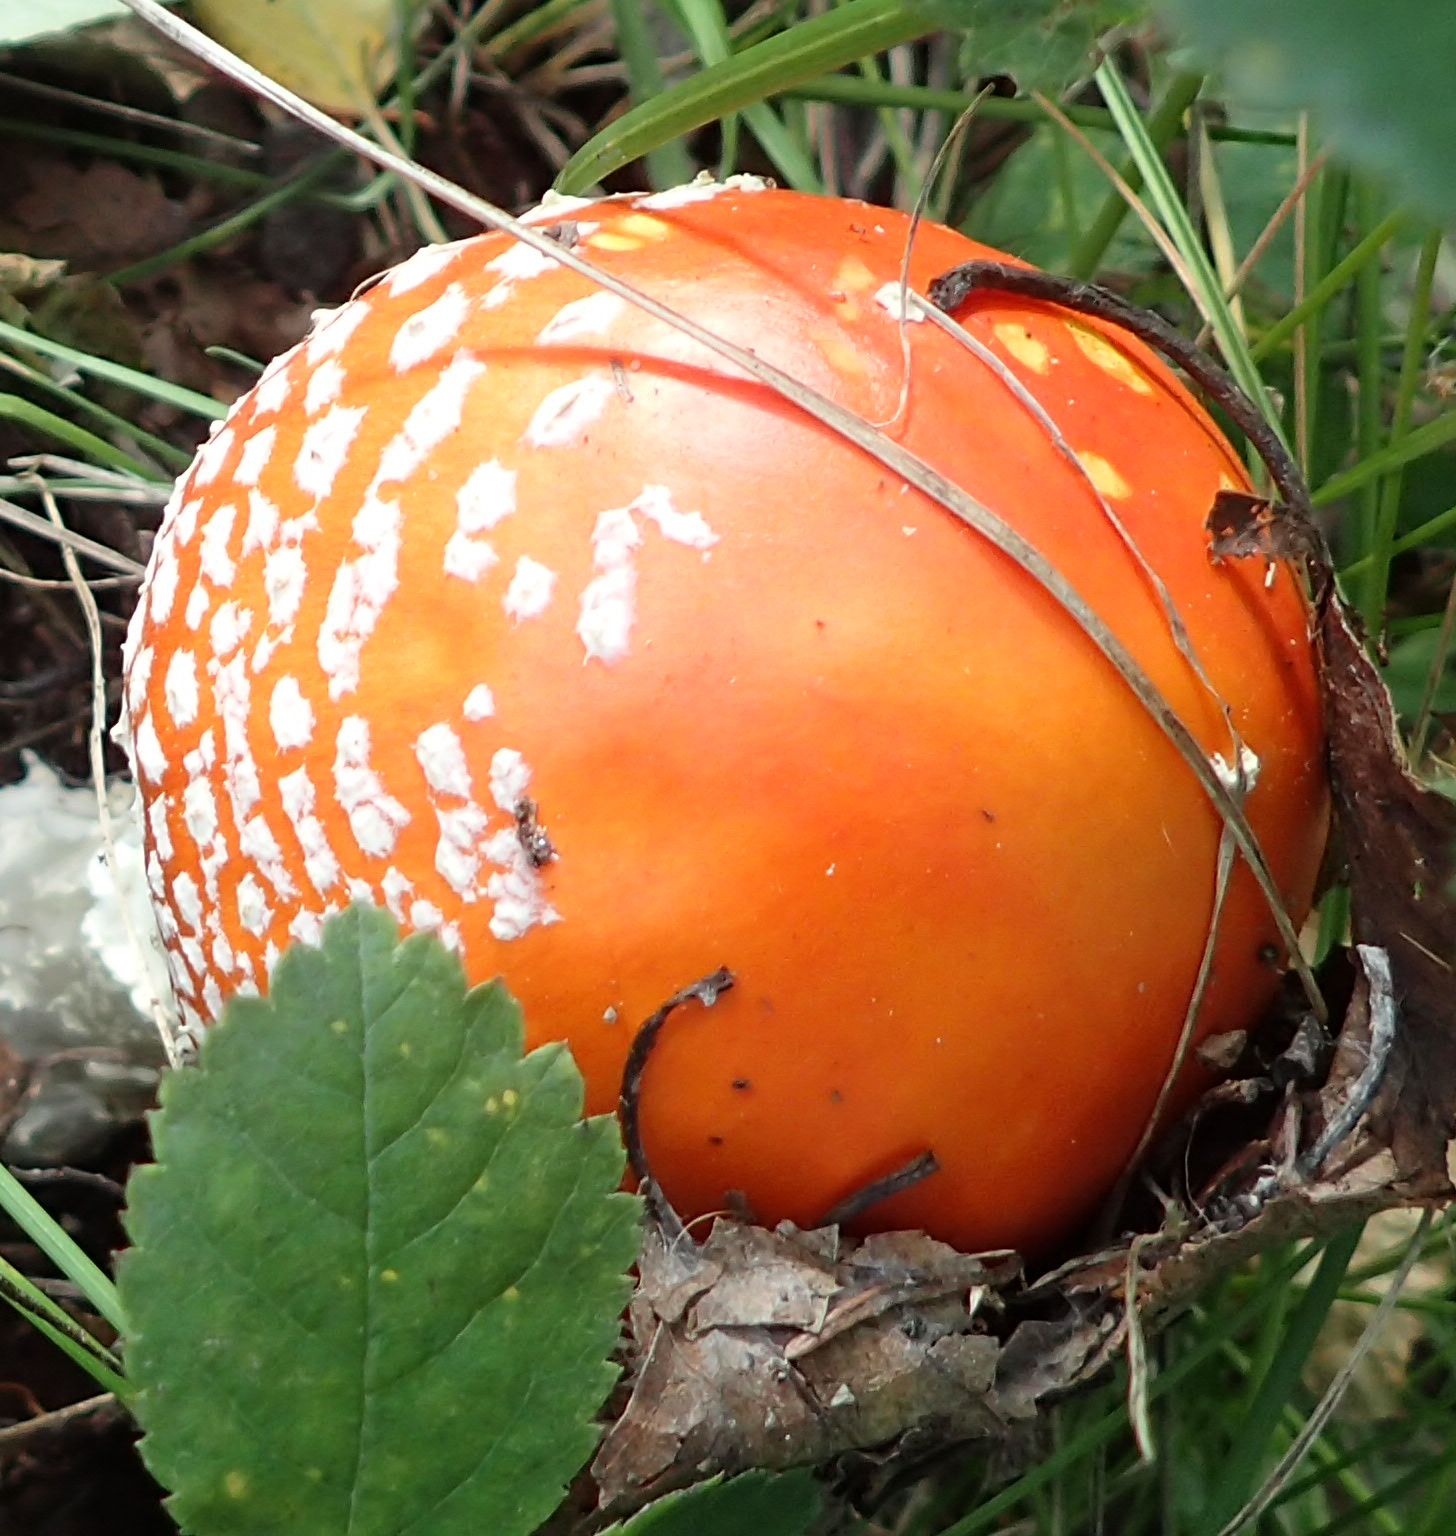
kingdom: Fungi
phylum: Basidiomycota
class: Agaricomycetes
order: Agaricales
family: Amanitaceae
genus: Amanita
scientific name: Amanita muscaria
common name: Fly agaric
